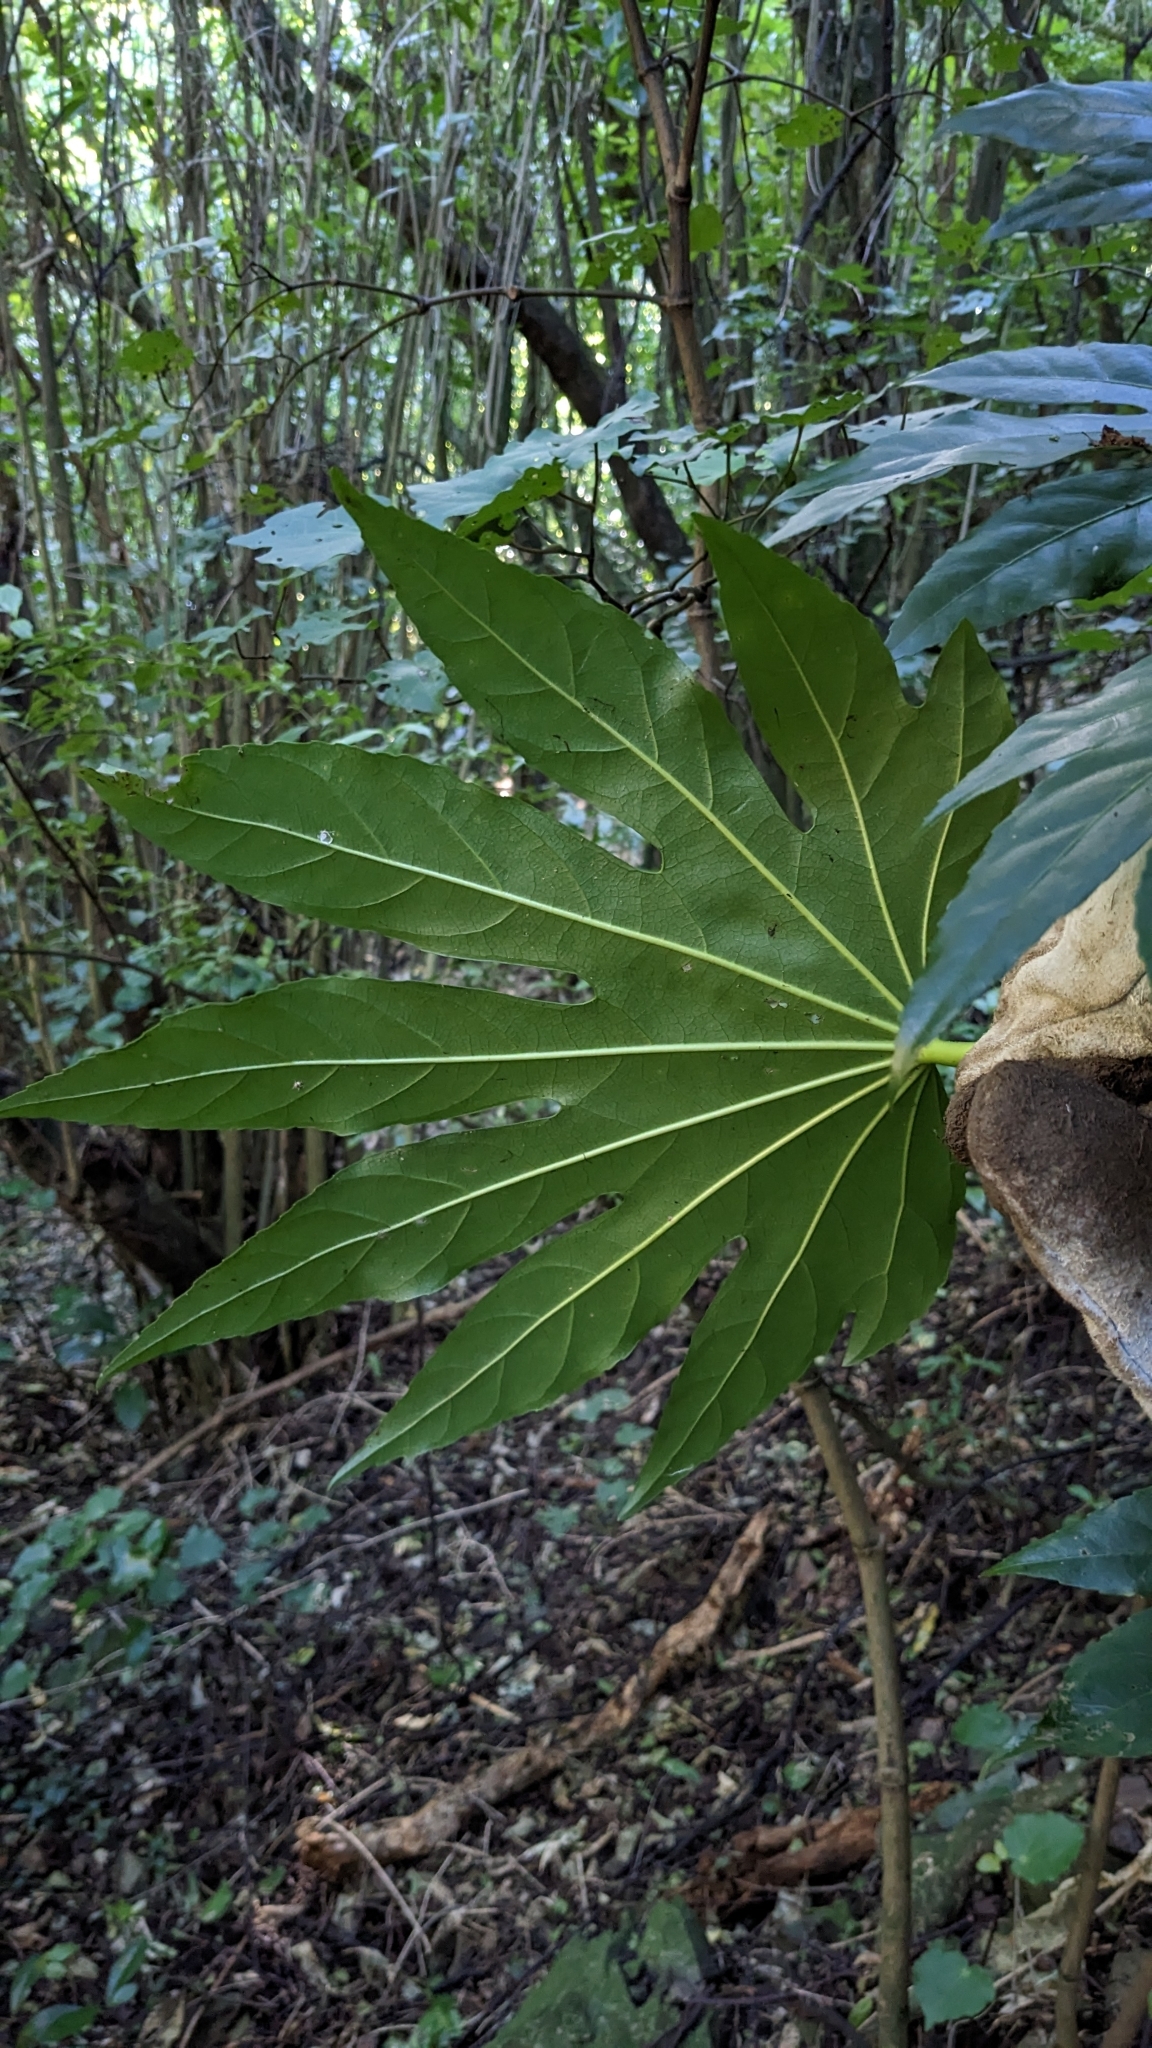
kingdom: Plantae
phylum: Tracheophyta
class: Magnoliopsida
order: Apiales
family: Araliaceae
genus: Fatsia
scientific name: Fatsia japonica
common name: Fatsia
